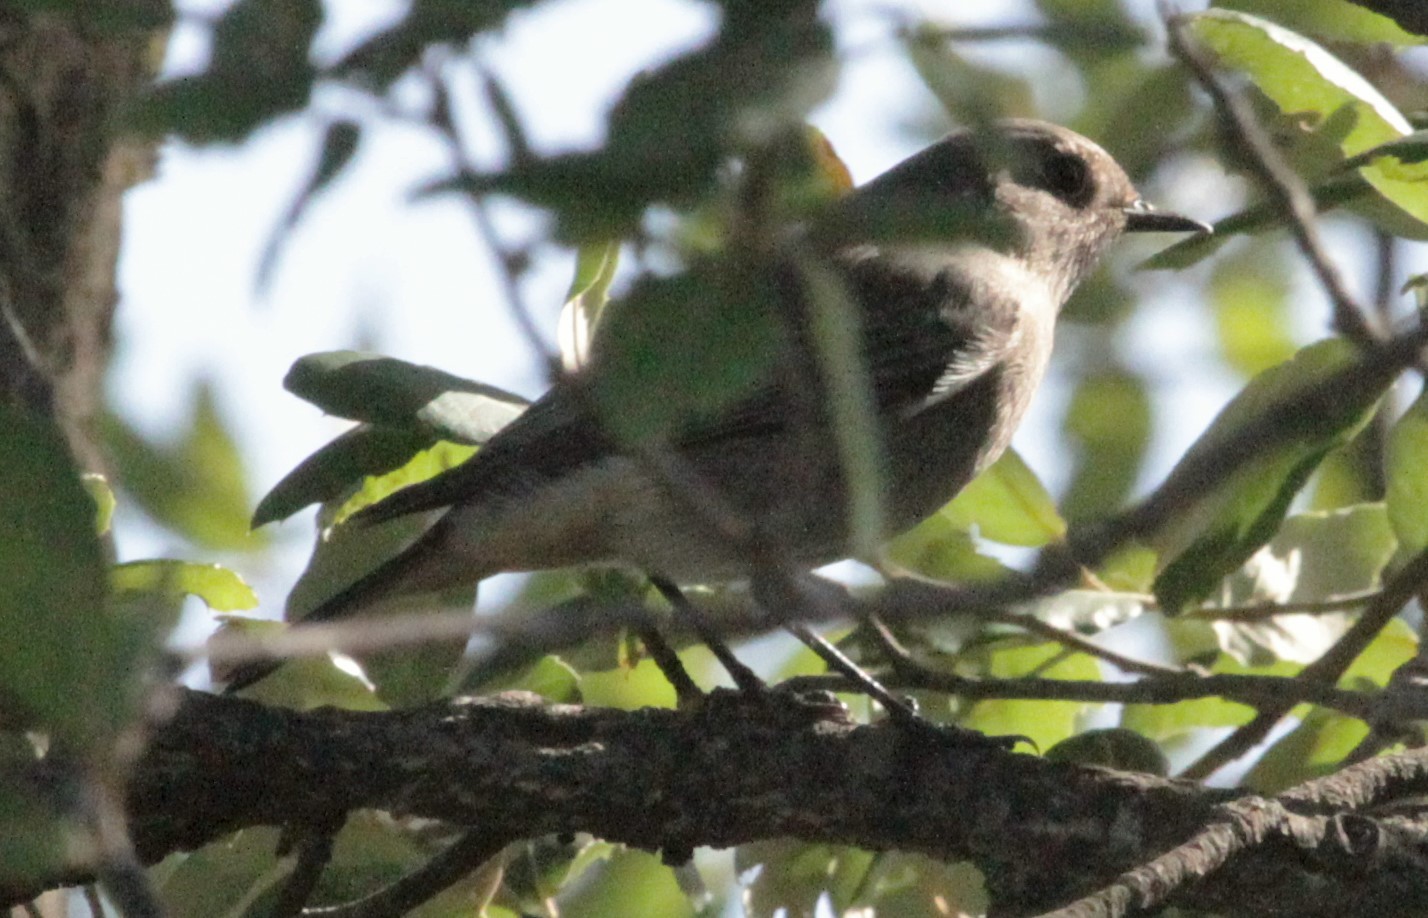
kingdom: Animalia
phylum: Chordata
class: Aves
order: Passeriformes
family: Muscicapidae
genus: Phoenicurus
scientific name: Phoenicurus ochruros
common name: Black redstart
